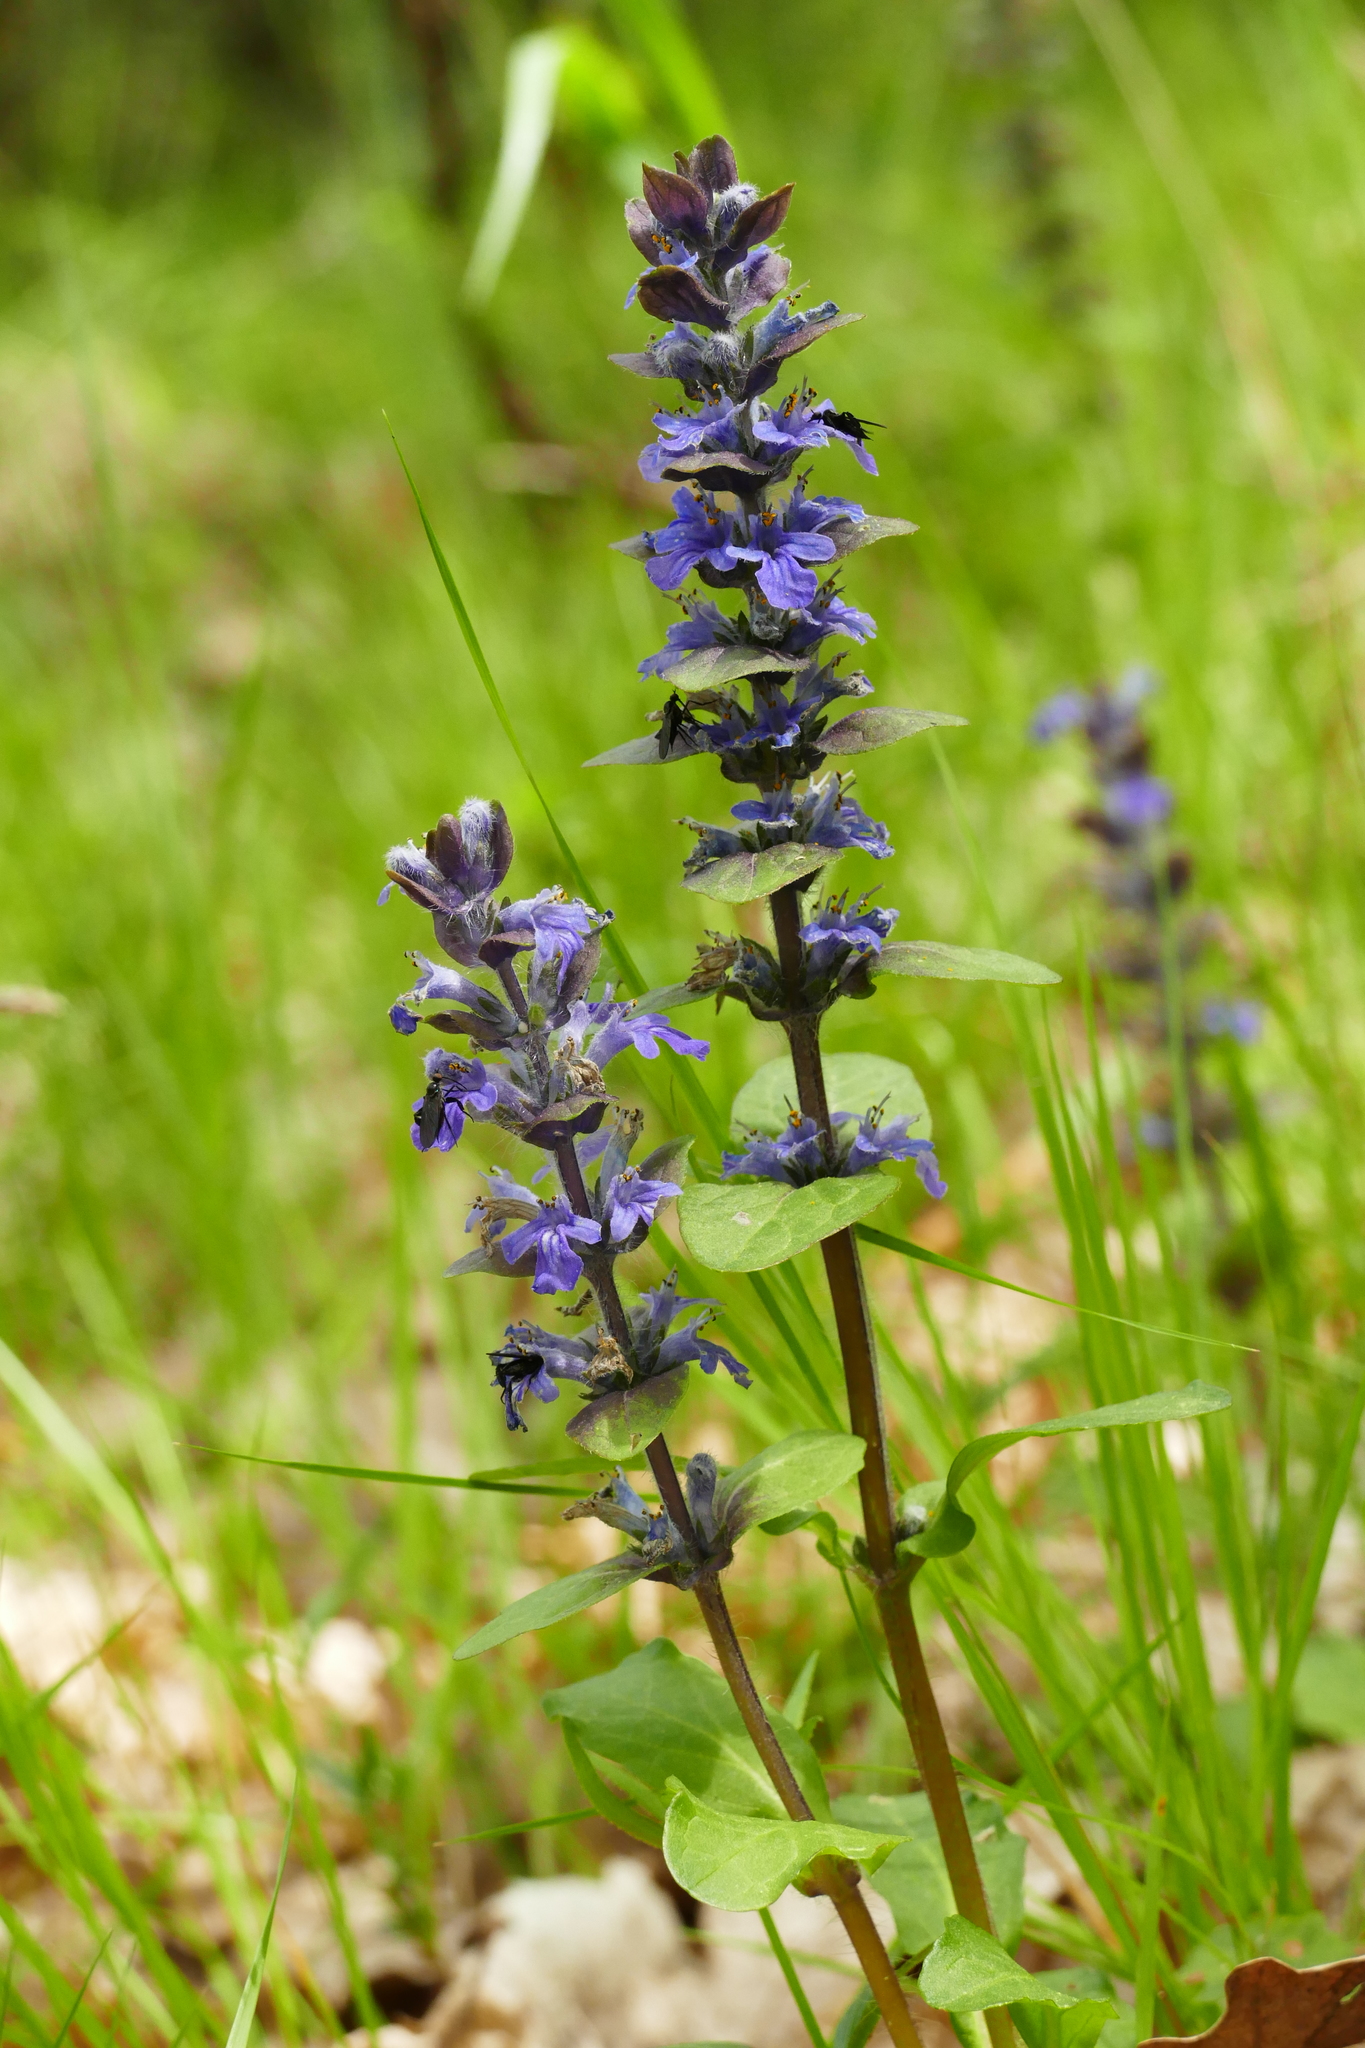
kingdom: Plantae
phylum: Tracheophyta
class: Magnoliopsida
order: Lamiales
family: Lamiaceae
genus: Ajuga
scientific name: Ajuga reptans
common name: Bugle
